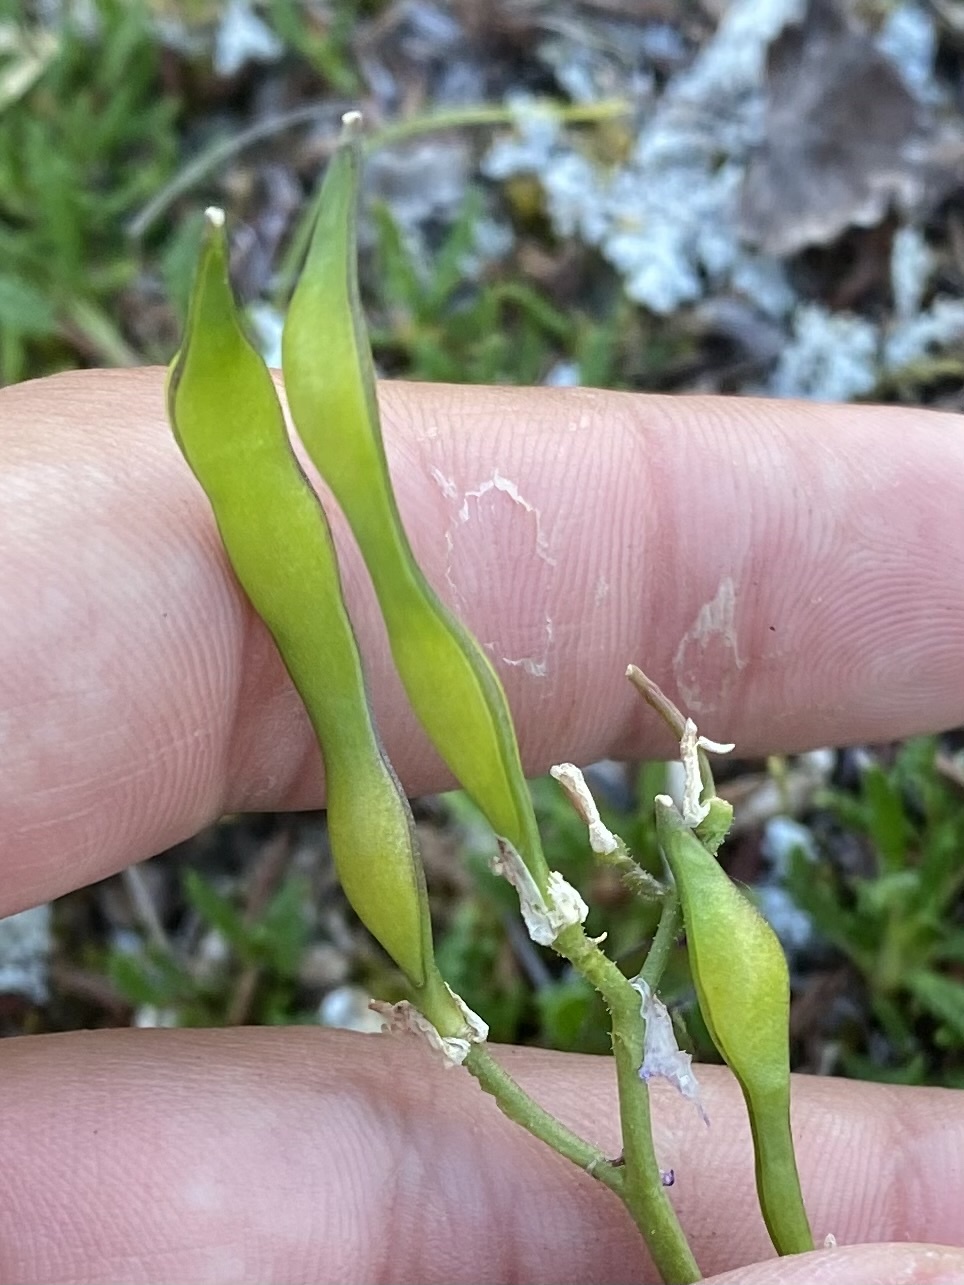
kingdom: Plantae
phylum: Tracheophyta
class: Magnoliopsida
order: Brassicales
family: Brassicaceae
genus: Parrya
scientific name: Parrya nudicaulis
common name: Naked-stemmed false wallflower
